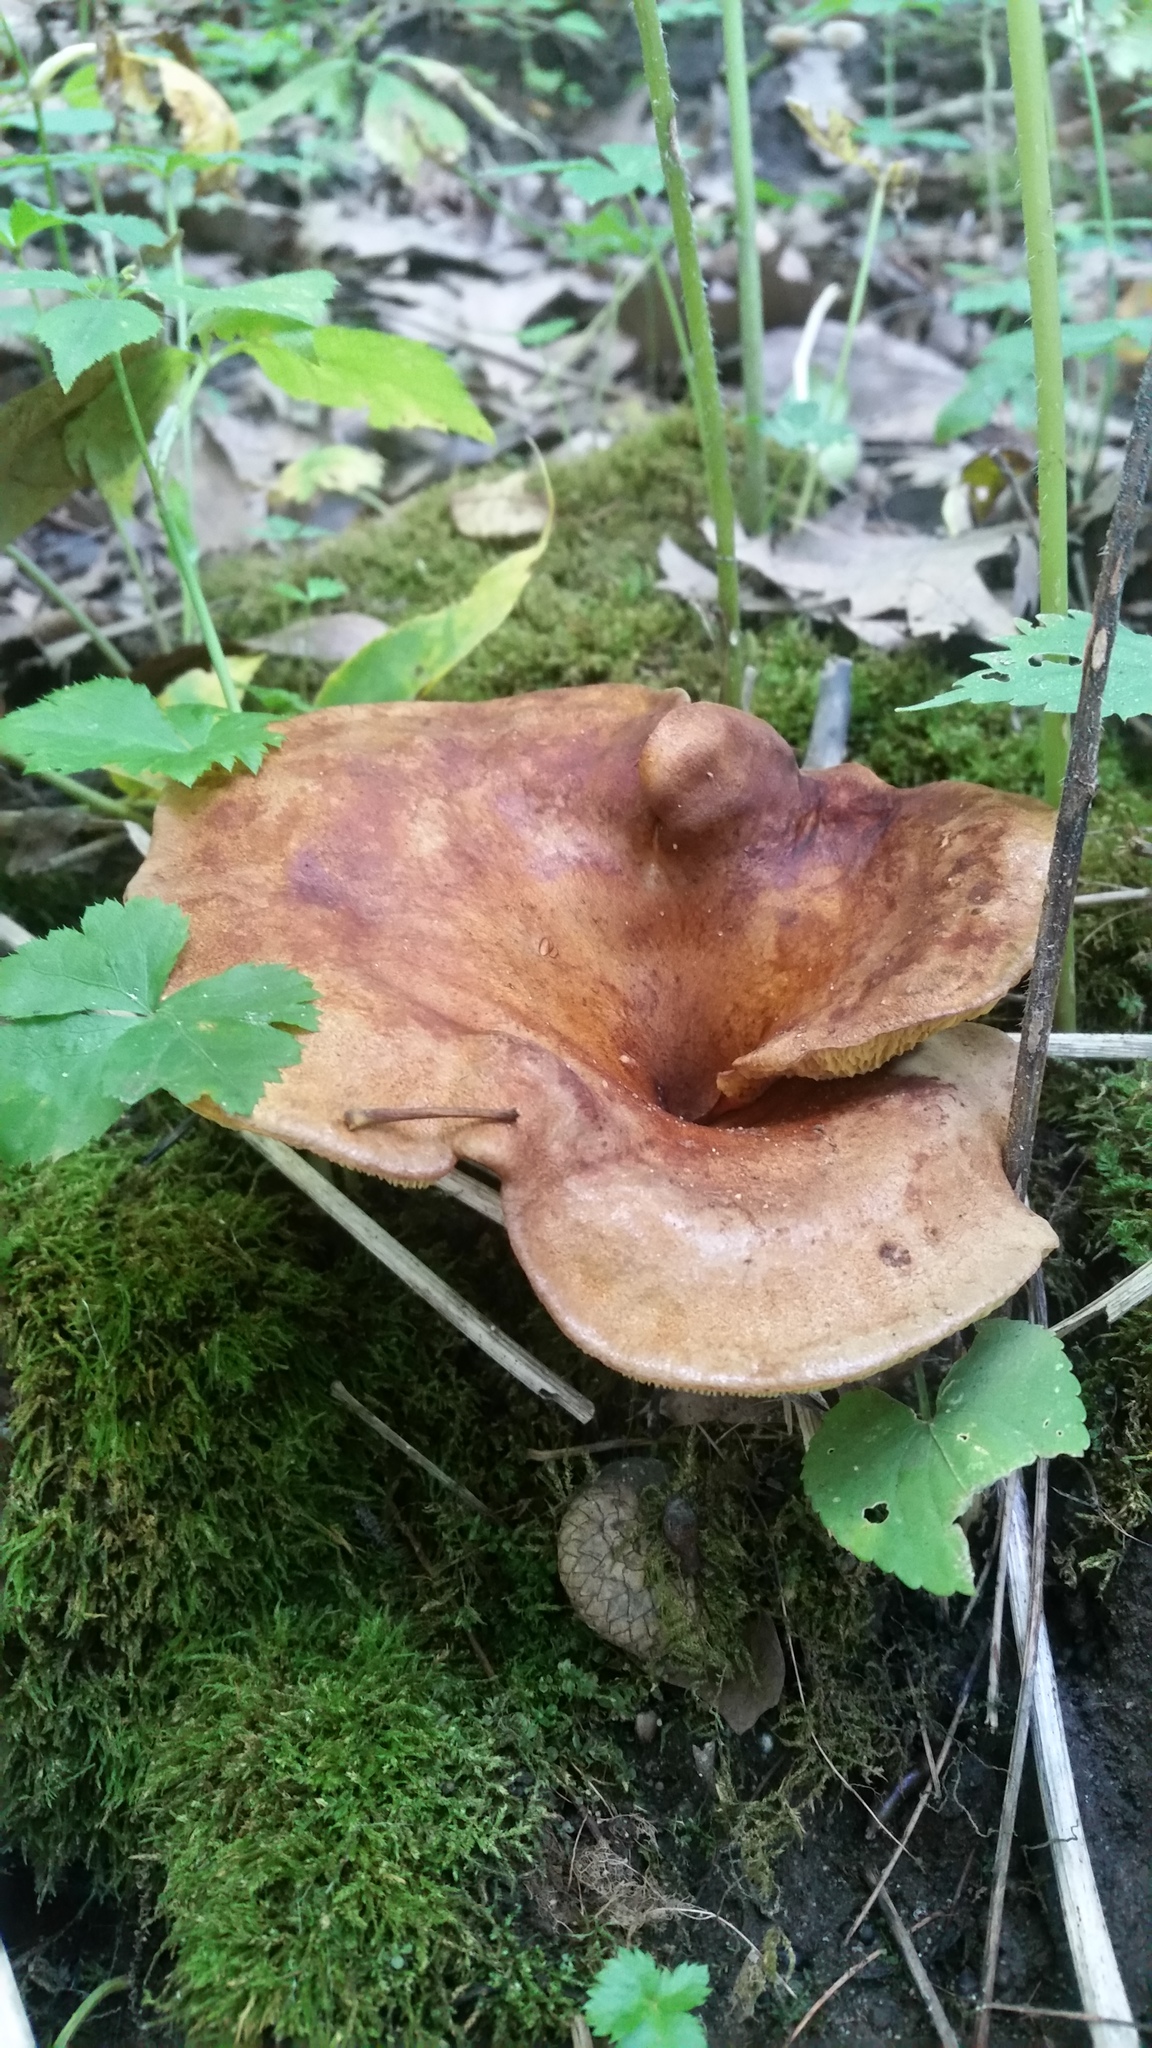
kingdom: Fungi
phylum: Basidiomycota
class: Agaricomycetes
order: Boletales
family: Boletinellaceae
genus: Boletinellus
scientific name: Boletinellus merulioides
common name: Ash tree bolete
